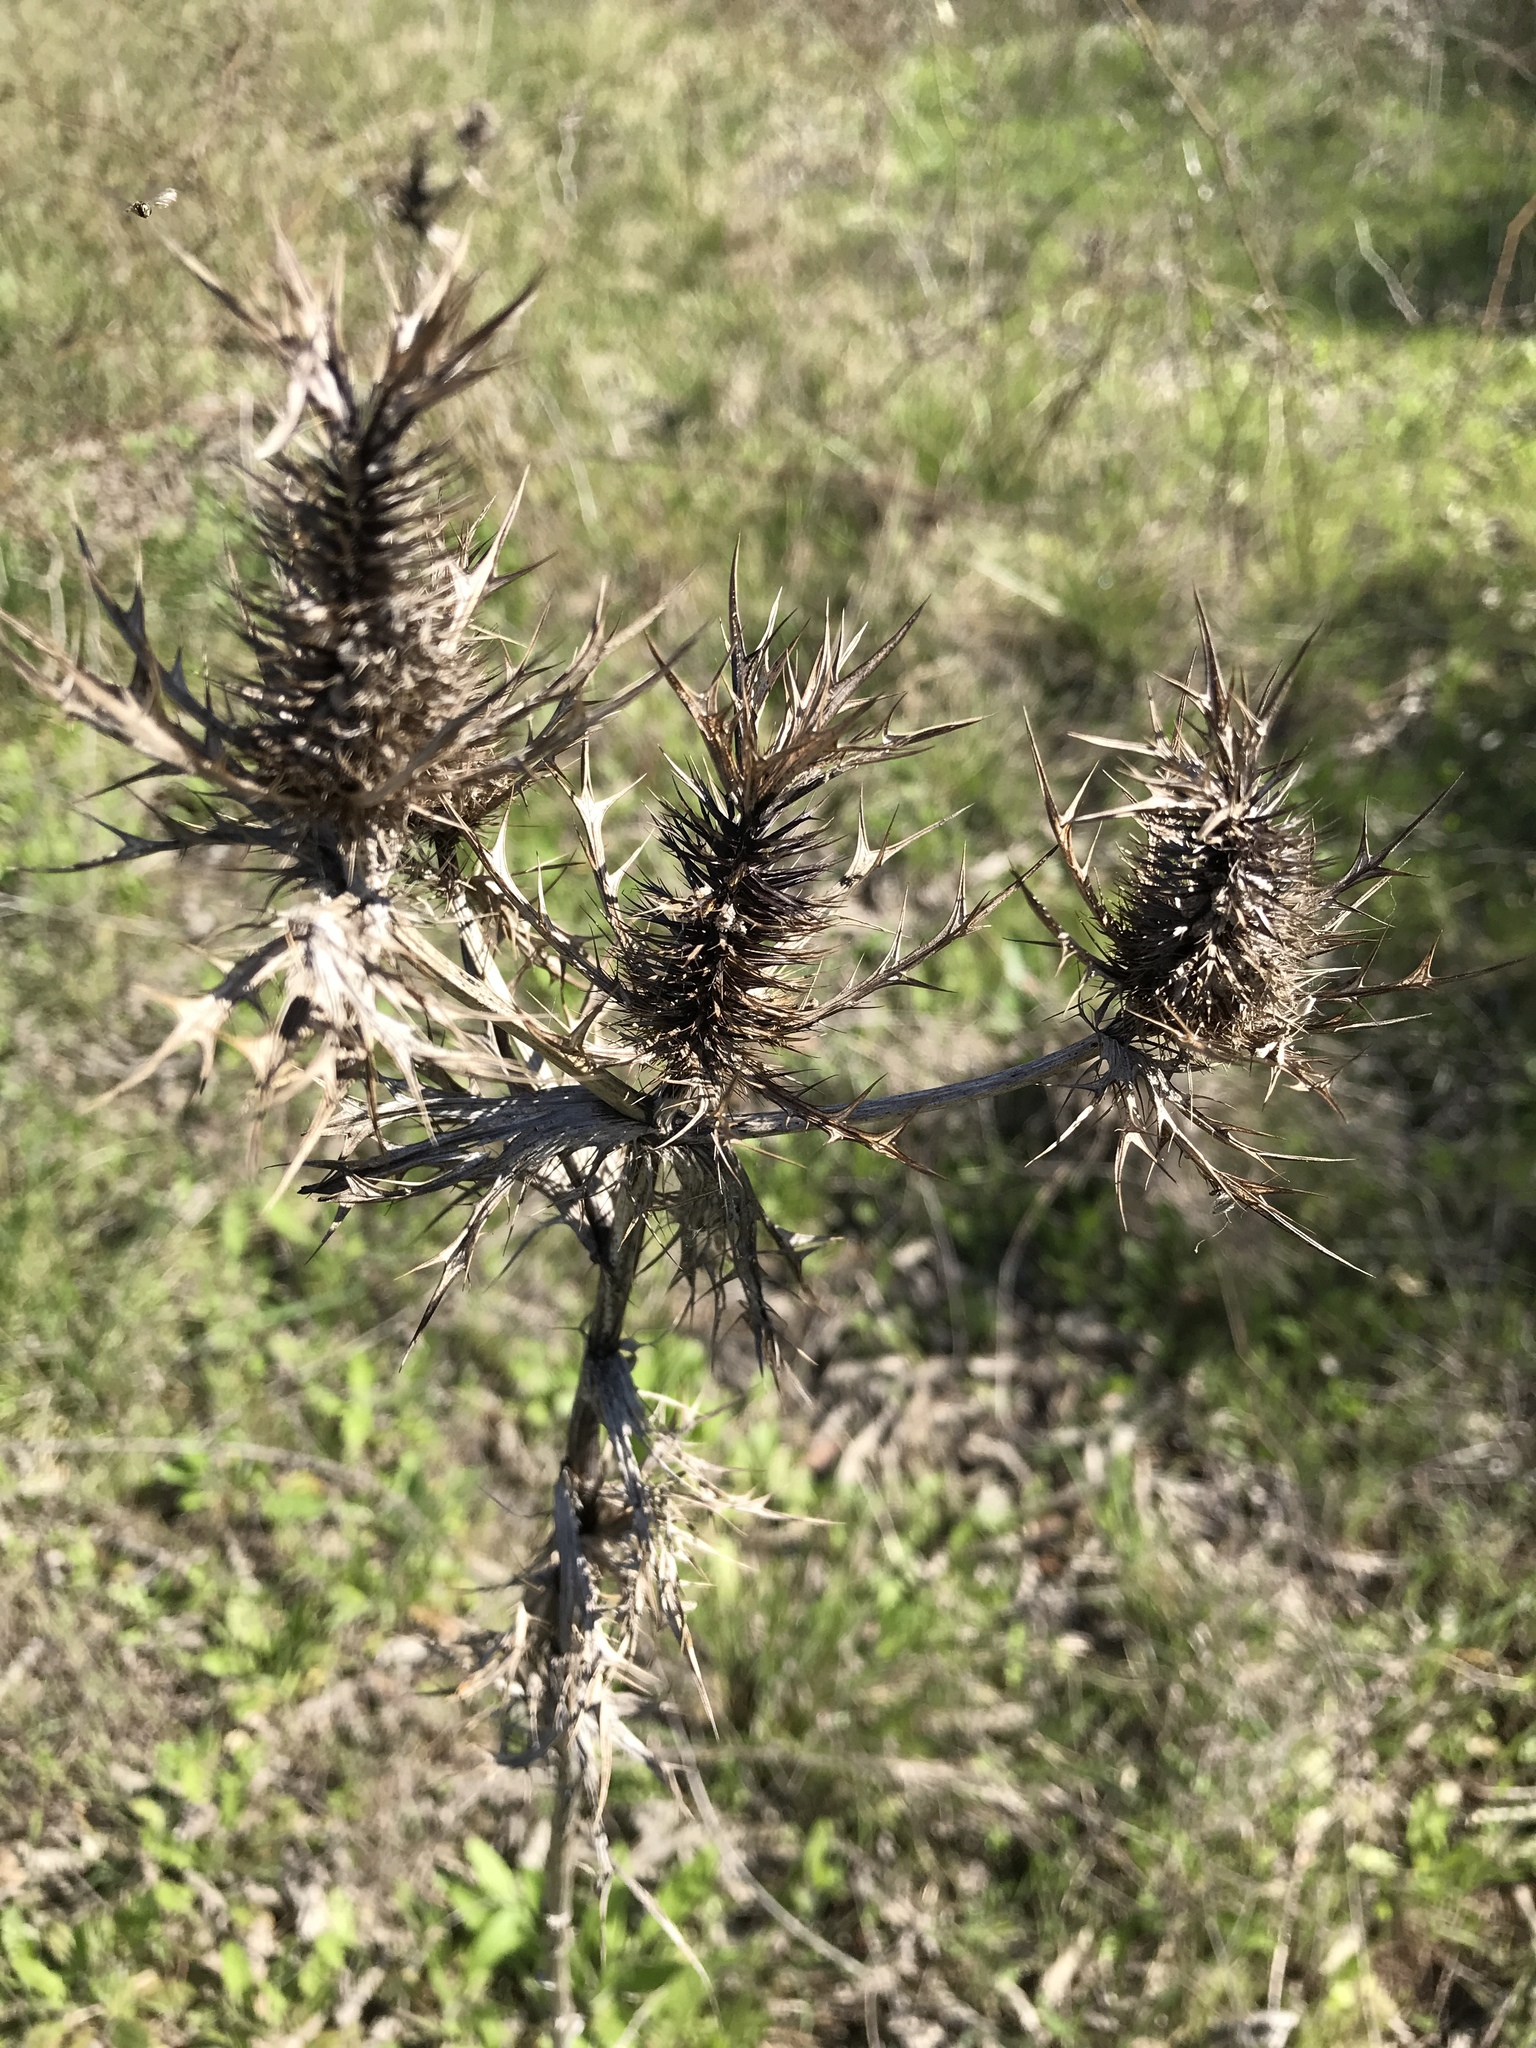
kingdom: Plantae
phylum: Tracheophyta
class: Magnoliopsida
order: Apiales
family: Apiaceae
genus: Eryngium
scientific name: Eryngium leavenworthii
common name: Leavenworth's eryngo
